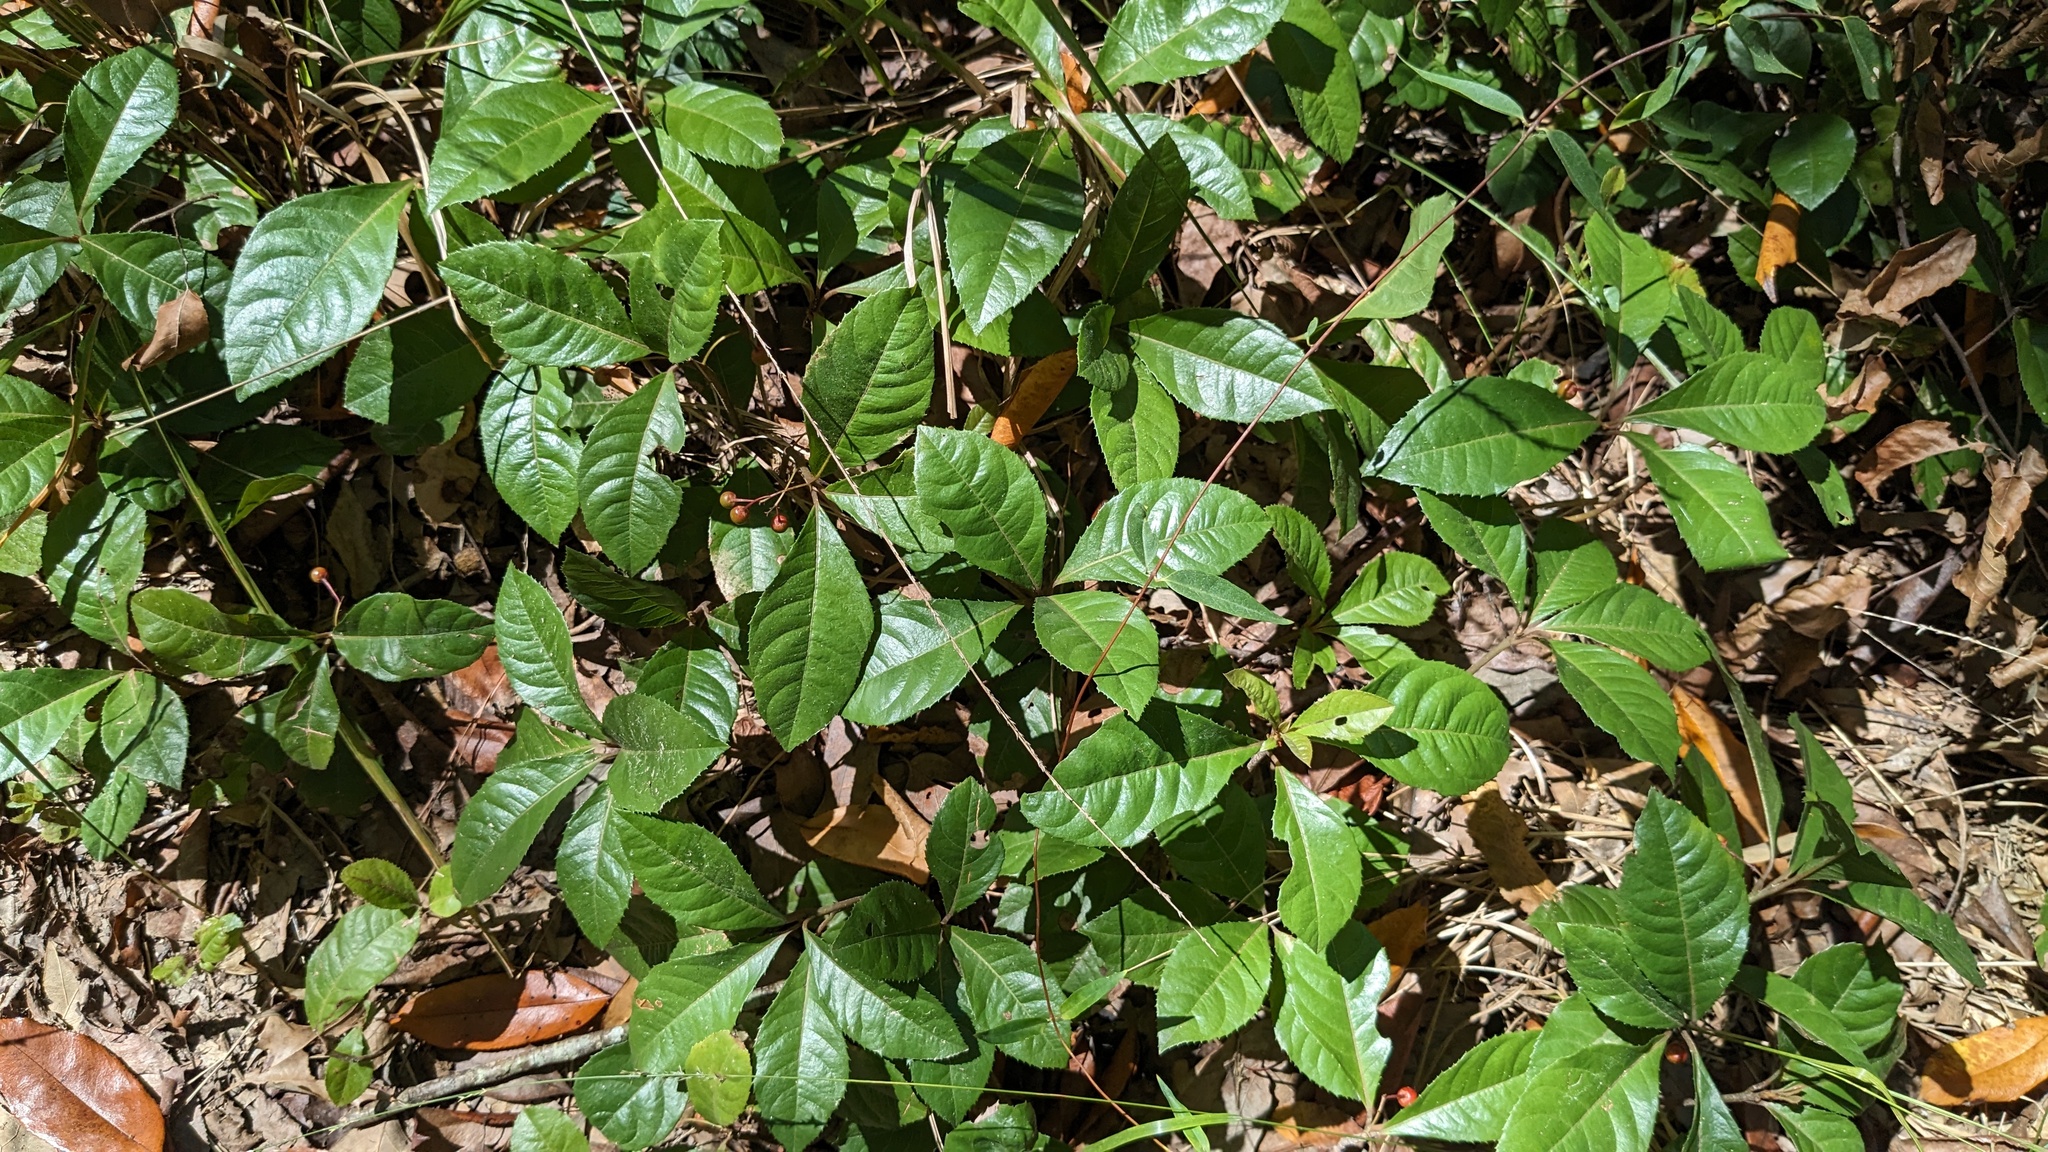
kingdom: Plantae
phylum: Tracheophyta
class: Magnoliopsida
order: Ericales
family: Primulaceae
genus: Ardisia
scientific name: Ardisia japonica
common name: Marlberry
